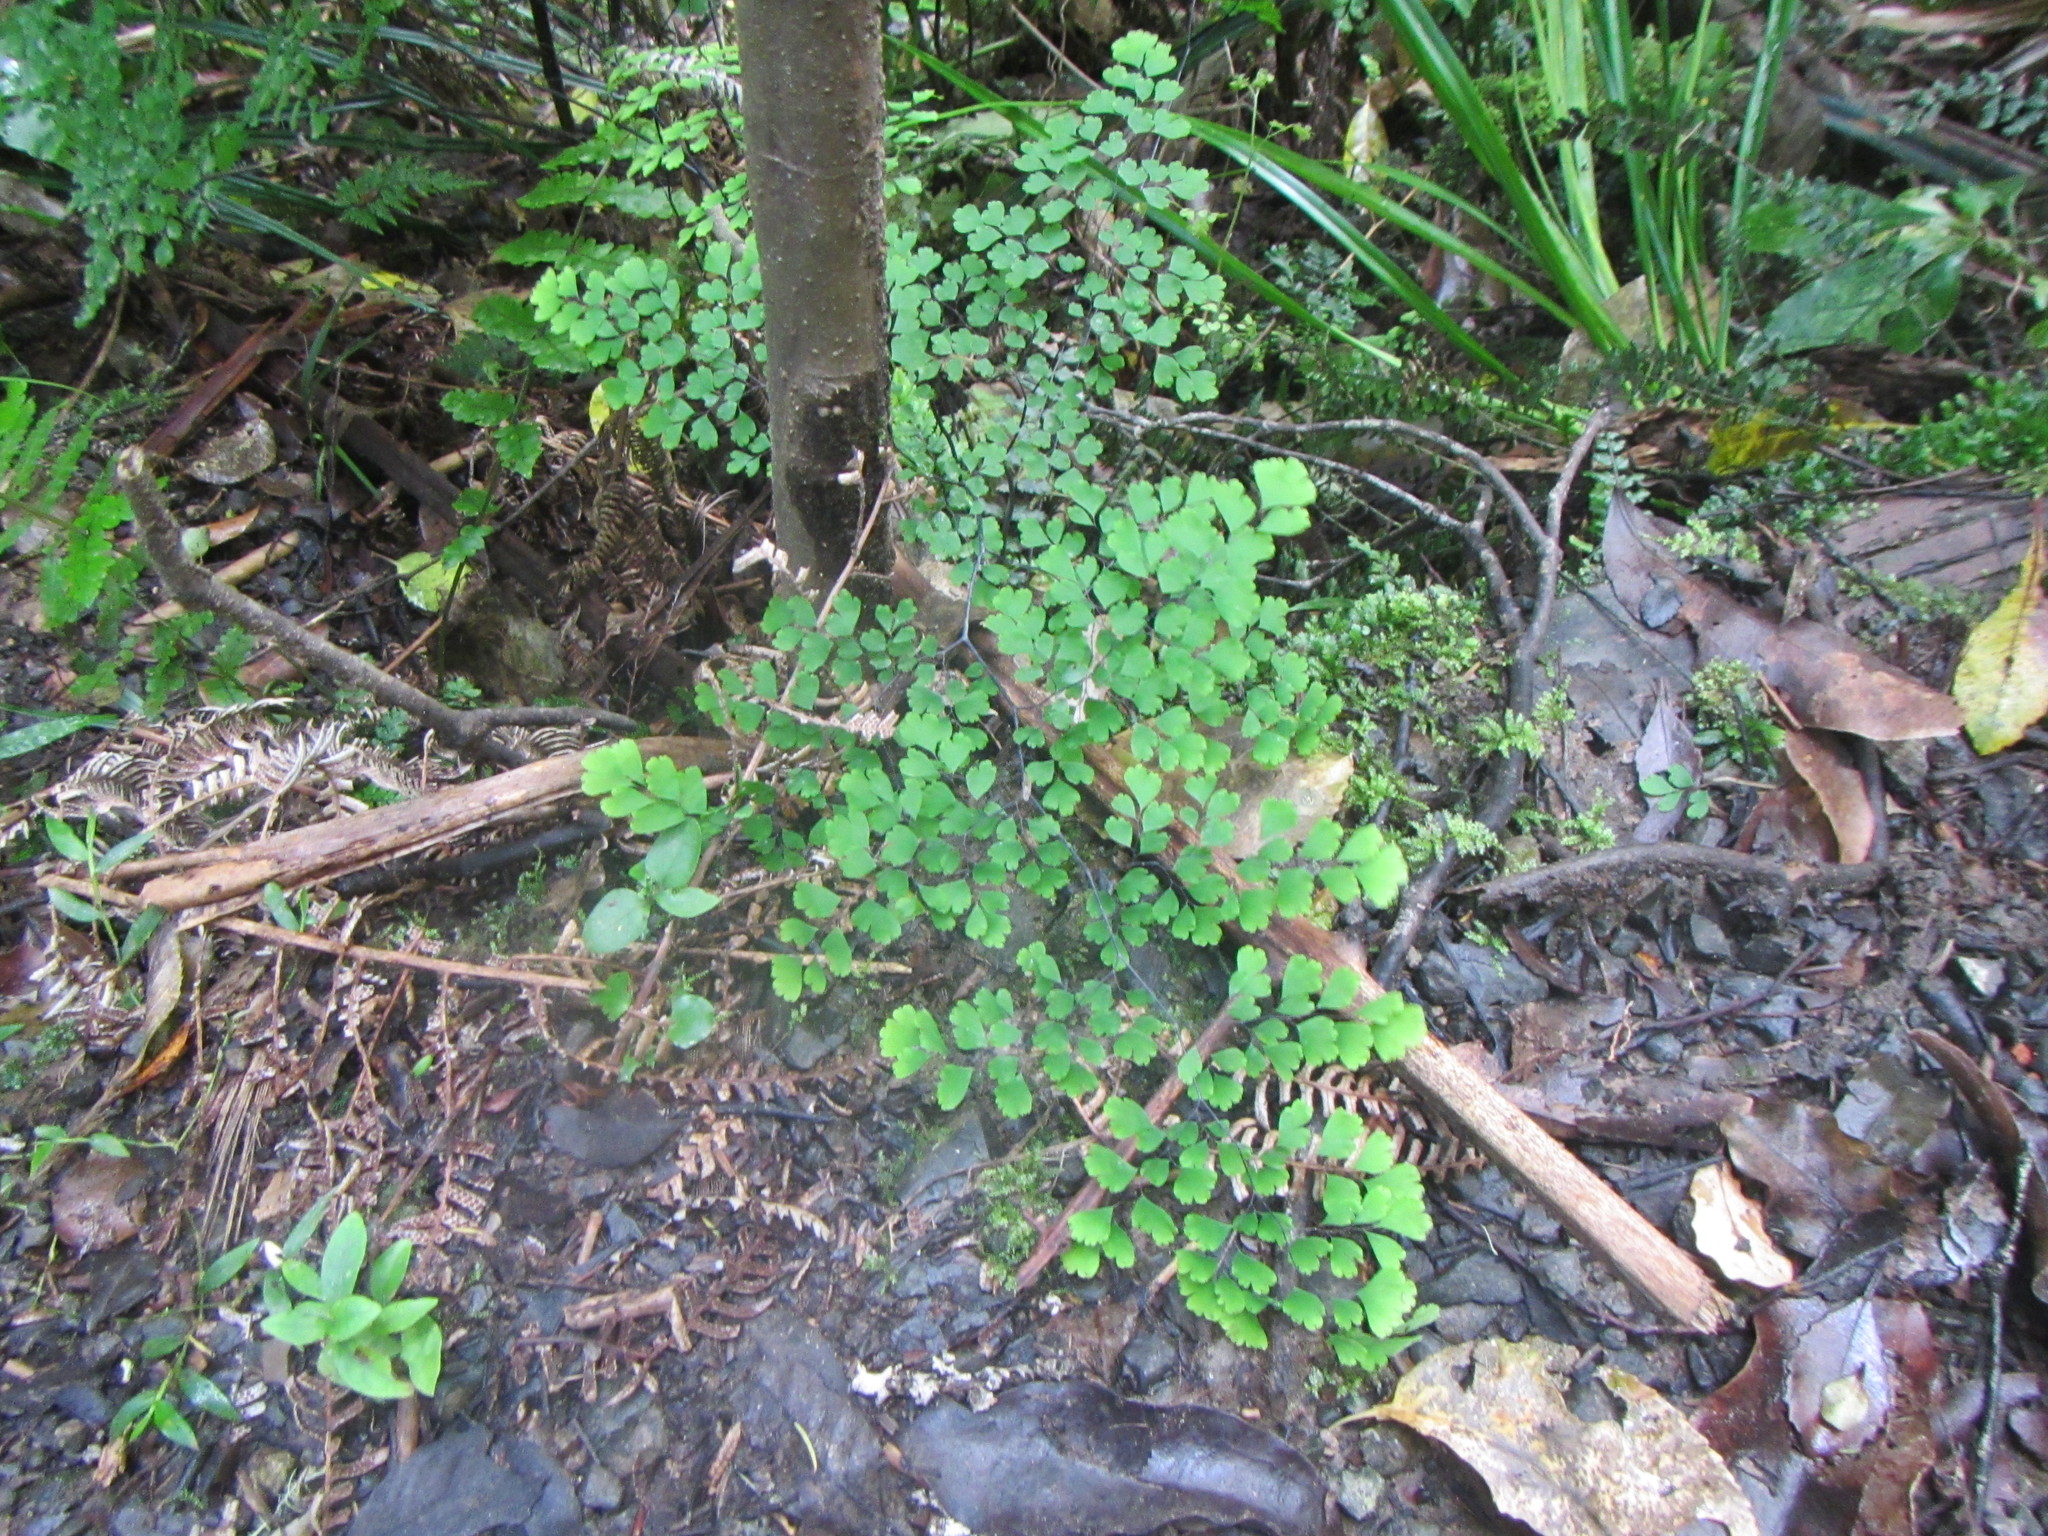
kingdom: Plantae
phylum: Tracheophyta
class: Polypodiopsida
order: Polypodiales
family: Pteridaceae
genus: Adiantum
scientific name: Adiantum raddianum
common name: Delta maidenhair fern
